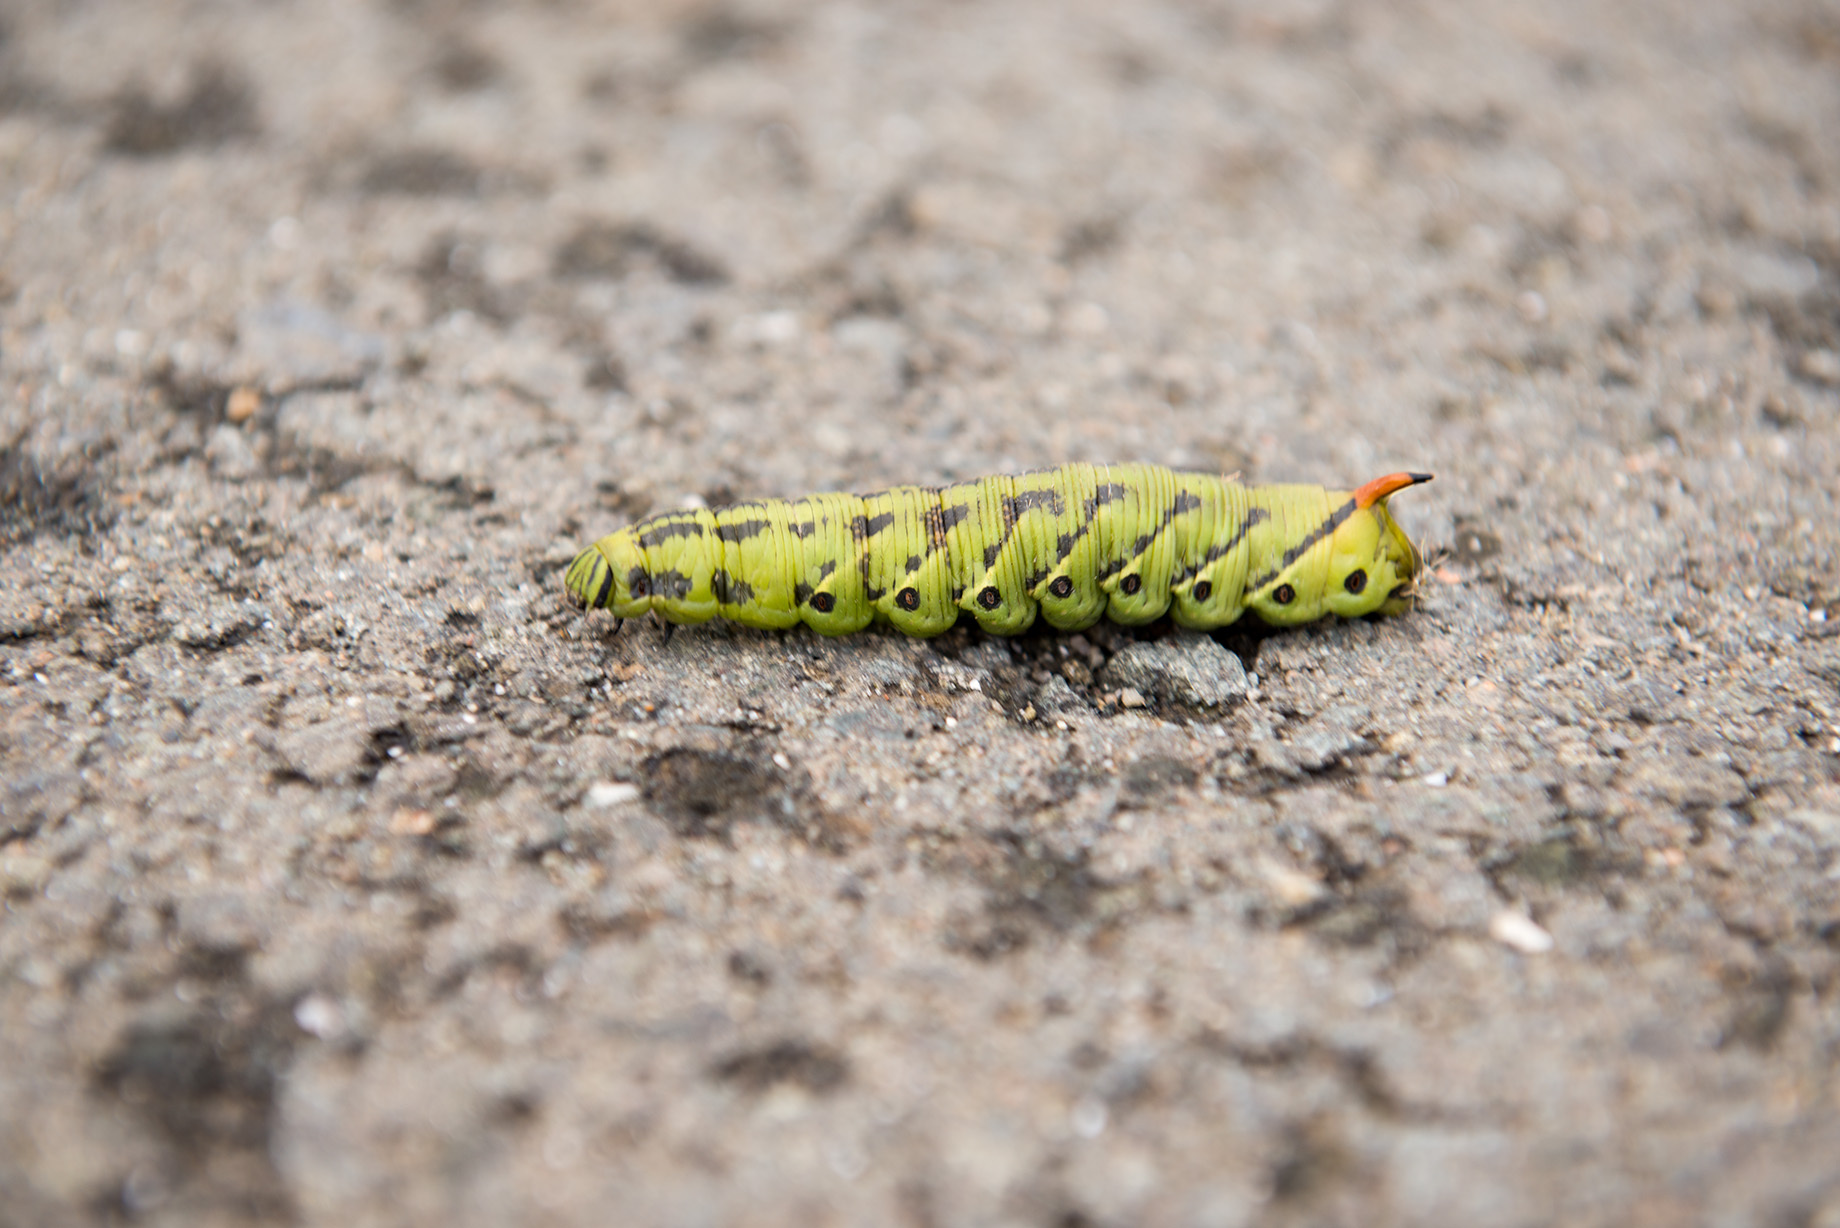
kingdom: Animalia
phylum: Arthropoda
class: Insecta
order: Lepidoptera
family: Sphingidae
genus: Agrius
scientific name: Agrius convolvuli
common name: Convolvulus hawkmoth
